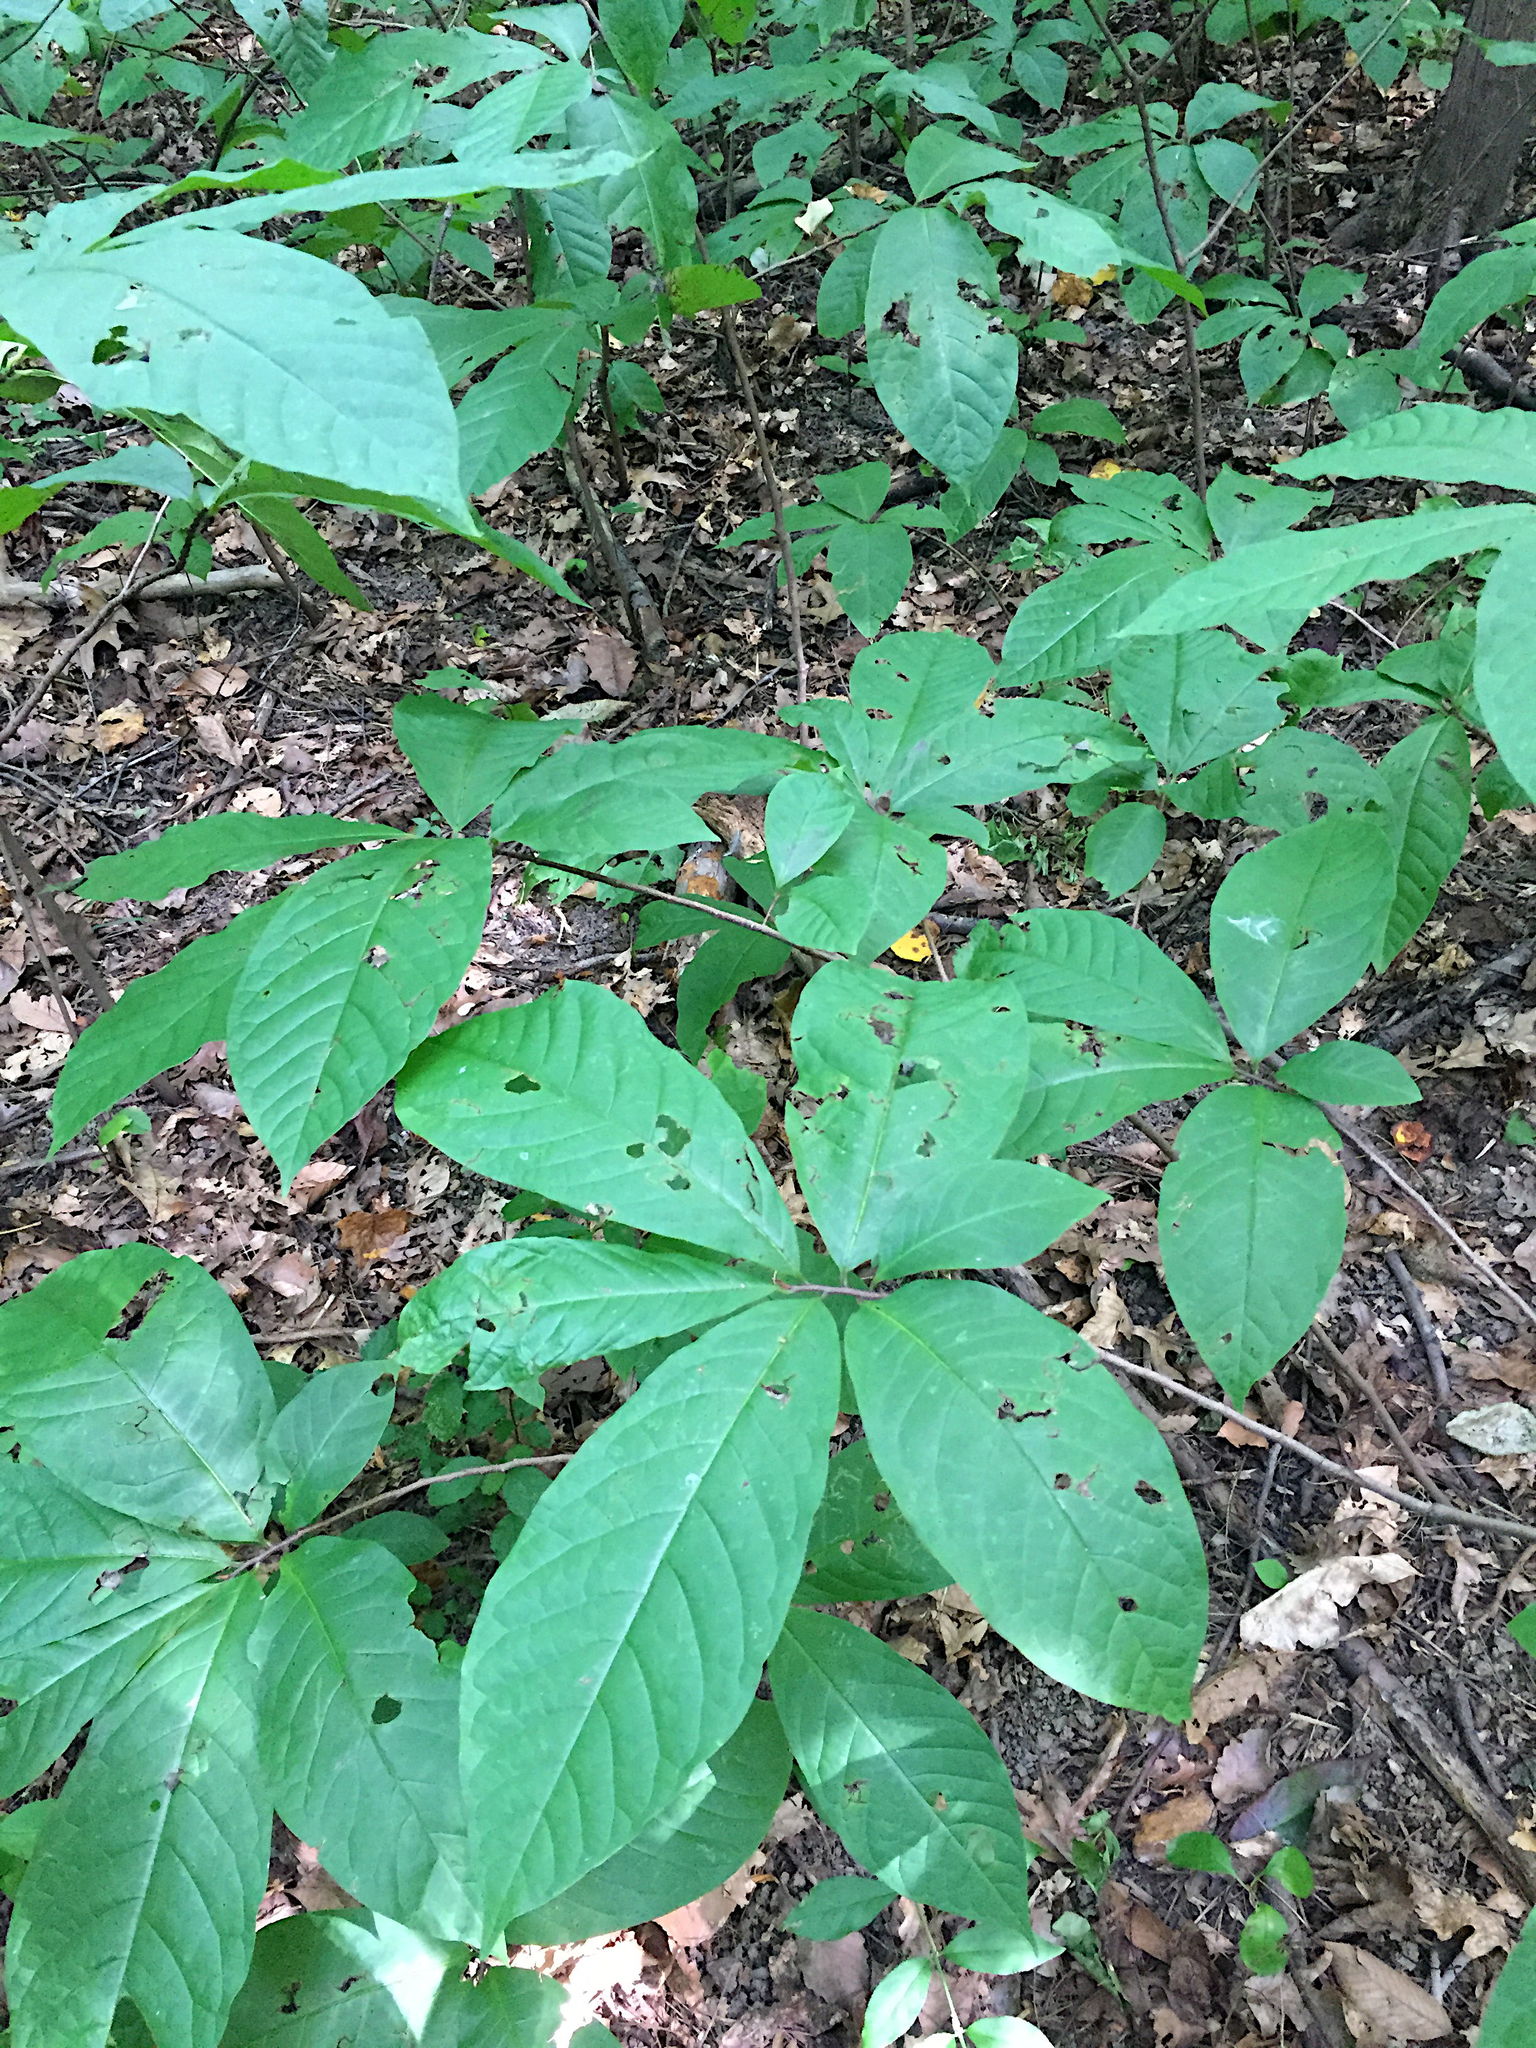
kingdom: Plantae
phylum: Tracheophyta
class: Magnoliopsida
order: Magnoliales
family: Annonaceae
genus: Asimina
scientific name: Asimina triloba
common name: Dog-banana
